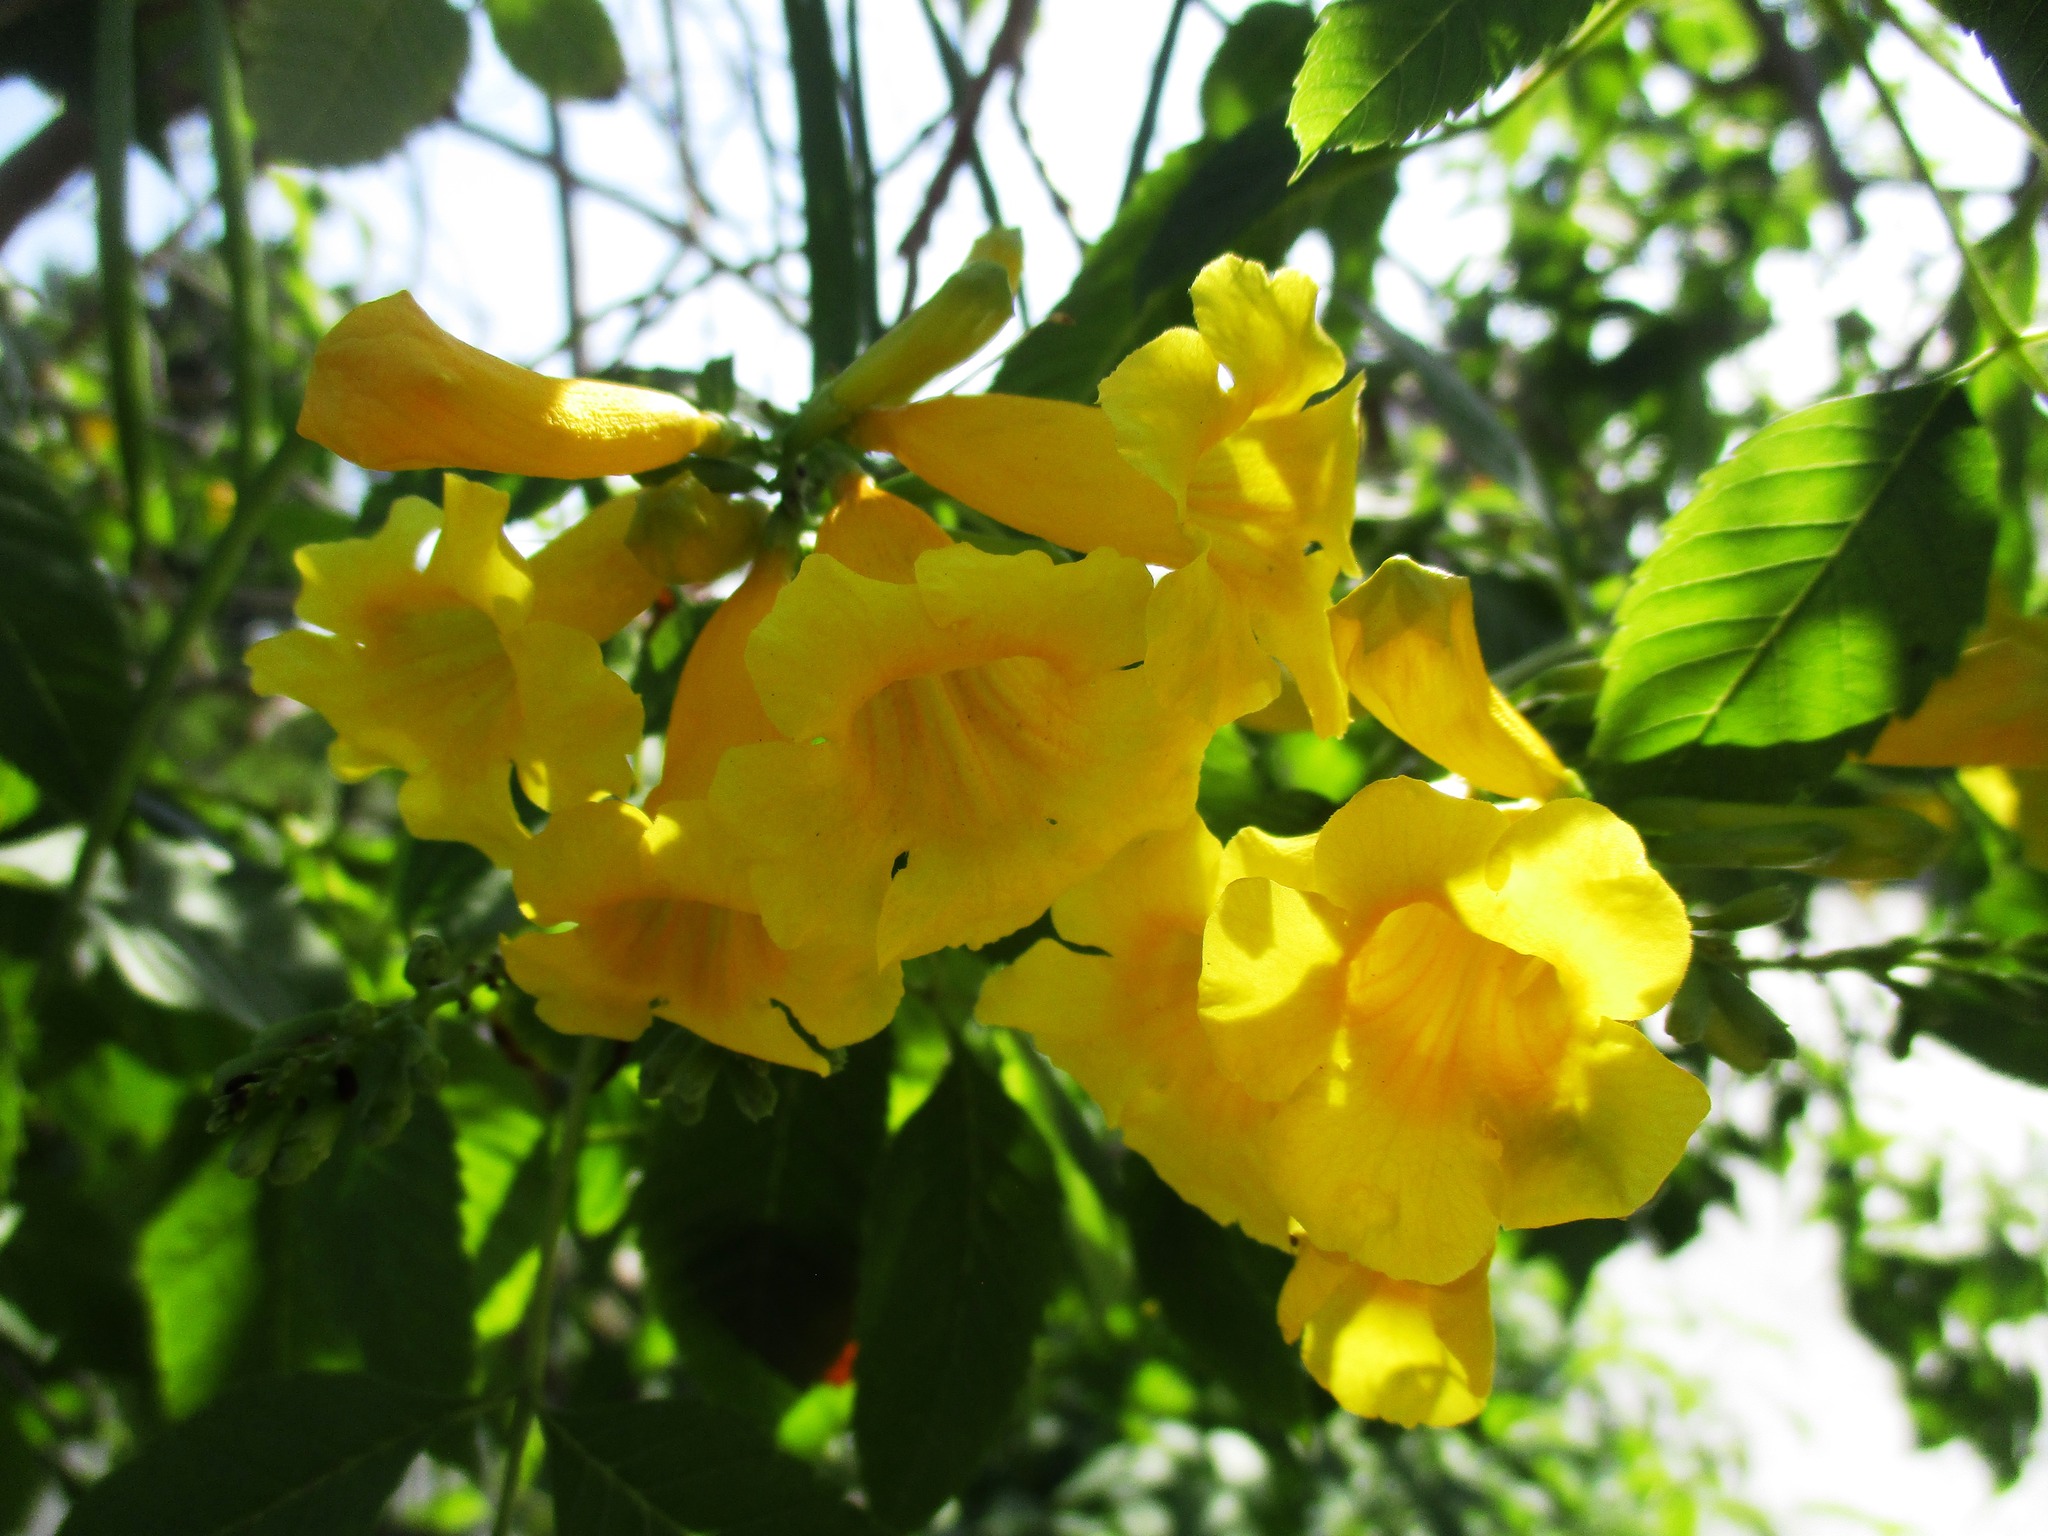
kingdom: Plantae
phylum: Tracheophyta
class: Magnoliopsida
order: Lamiales
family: Bignoniaceae
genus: Tecoma
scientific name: Tecoma stans
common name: Yellow trumpetbush
